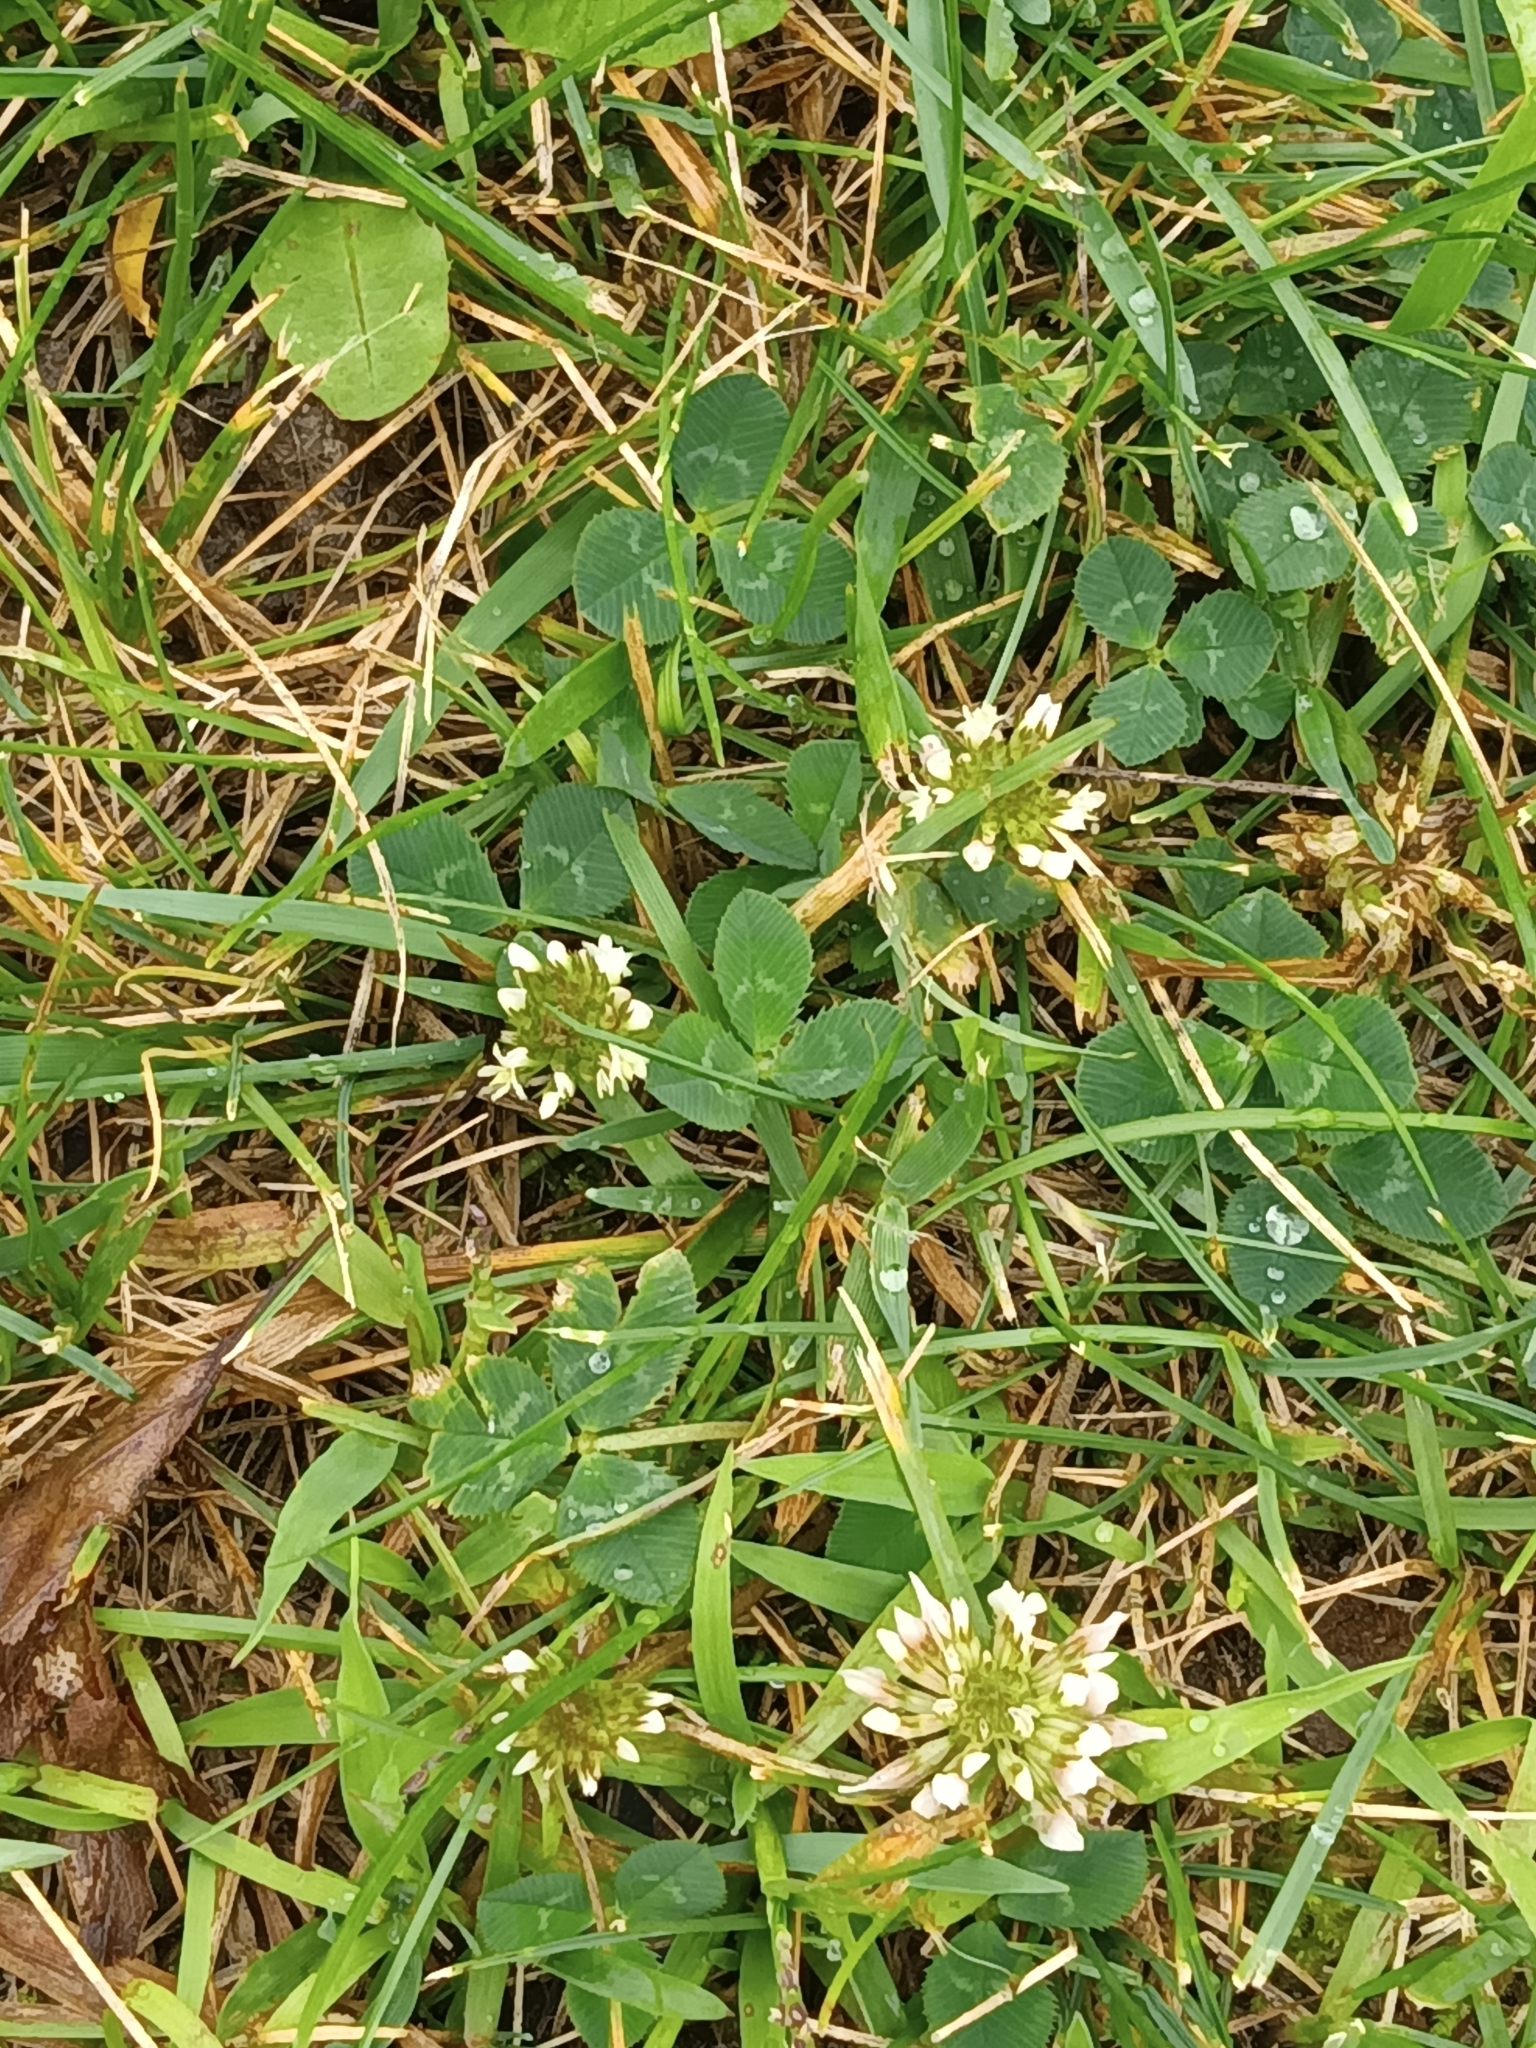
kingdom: Plantae
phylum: Tracheophyta
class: Magnoliopsida
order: Fabales
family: Fabaceae
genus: Trifolium
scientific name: Trifolium repens
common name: White clover
